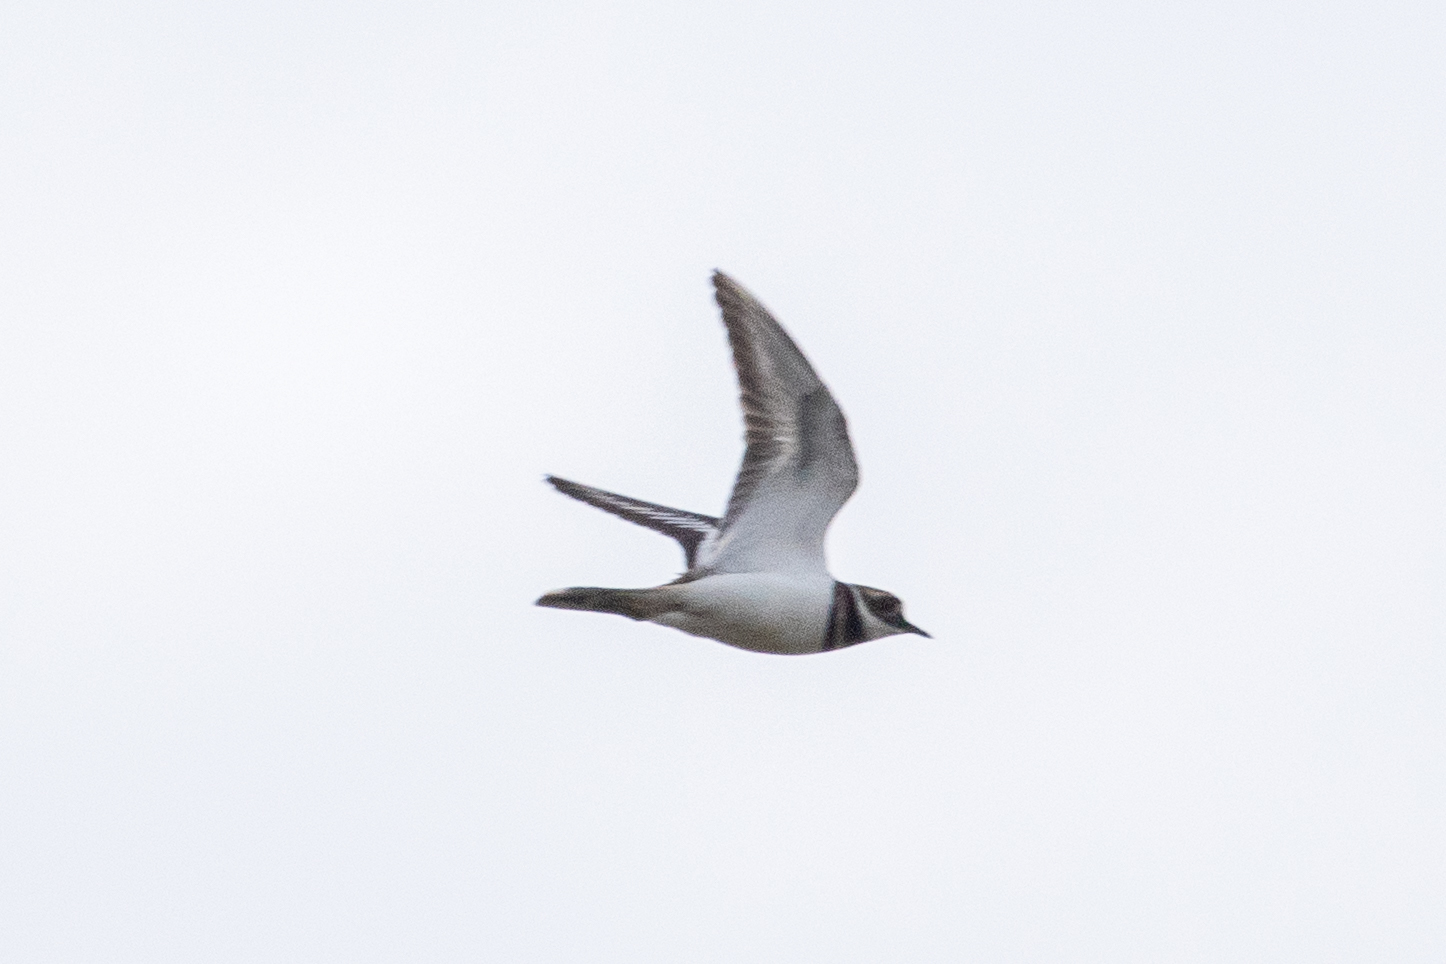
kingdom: Animalia
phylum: Chordata
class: Aves
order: Charadriiformes
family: Charadriidae
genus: Charadrius
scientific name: Charadrius vociferus
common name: Killdeer
